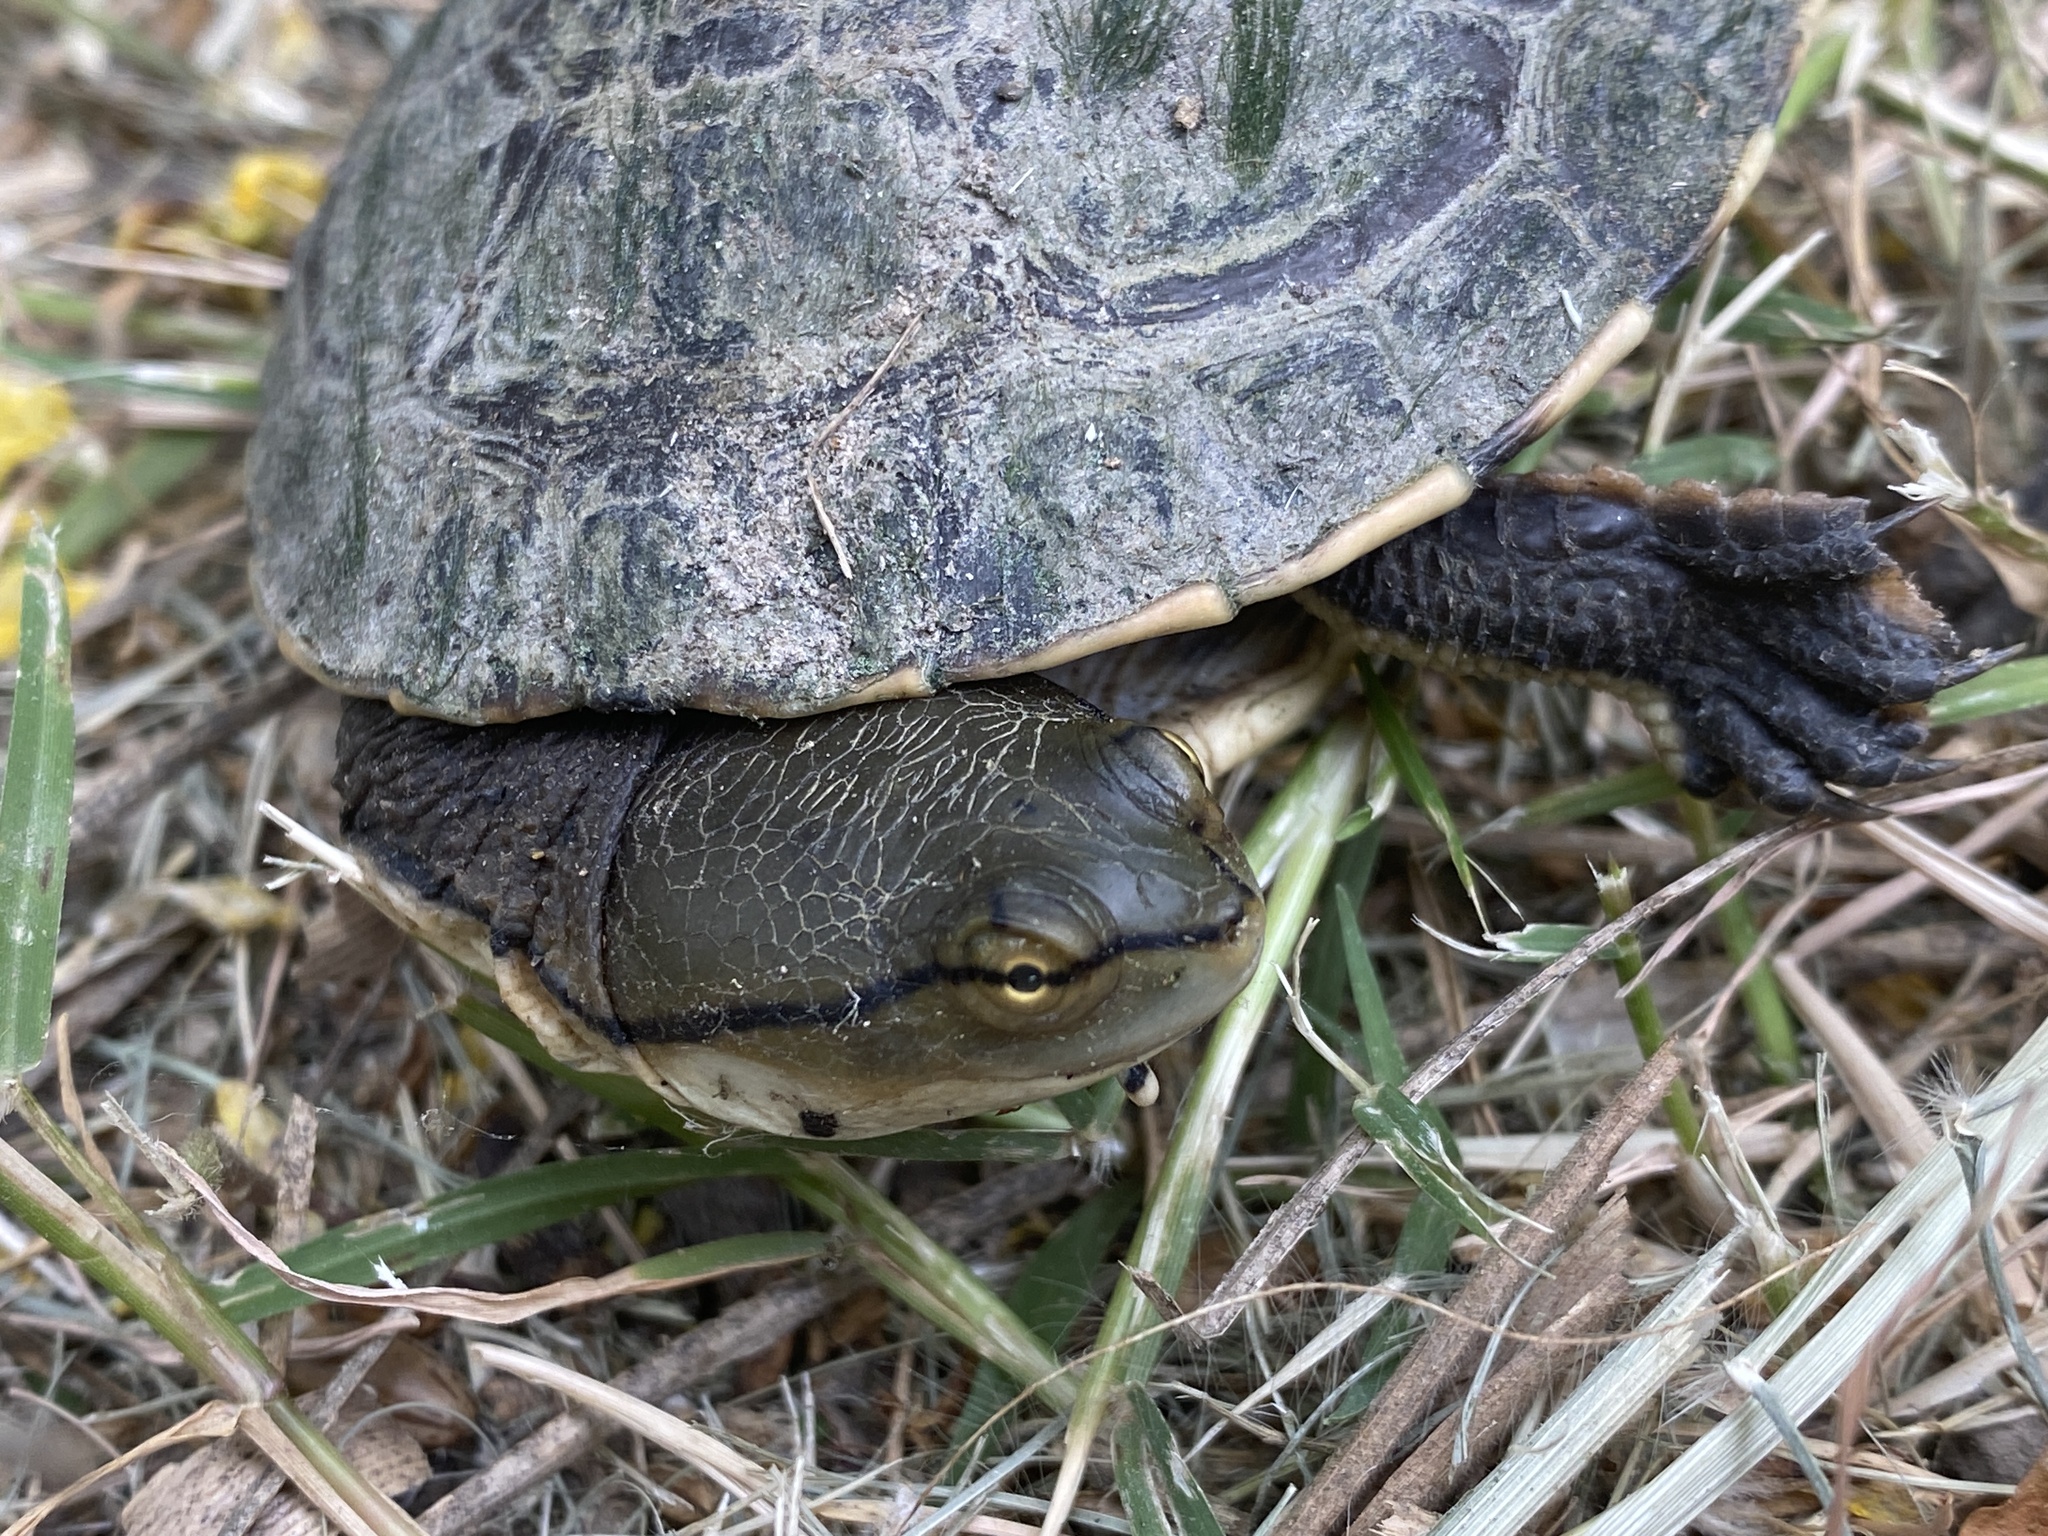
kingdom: Animalia
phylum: Chordata
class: Testudines
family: Chelidae
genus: Phrynops
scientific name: Phrynops hilarii
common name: Side-necked turtle of saint hillaire
